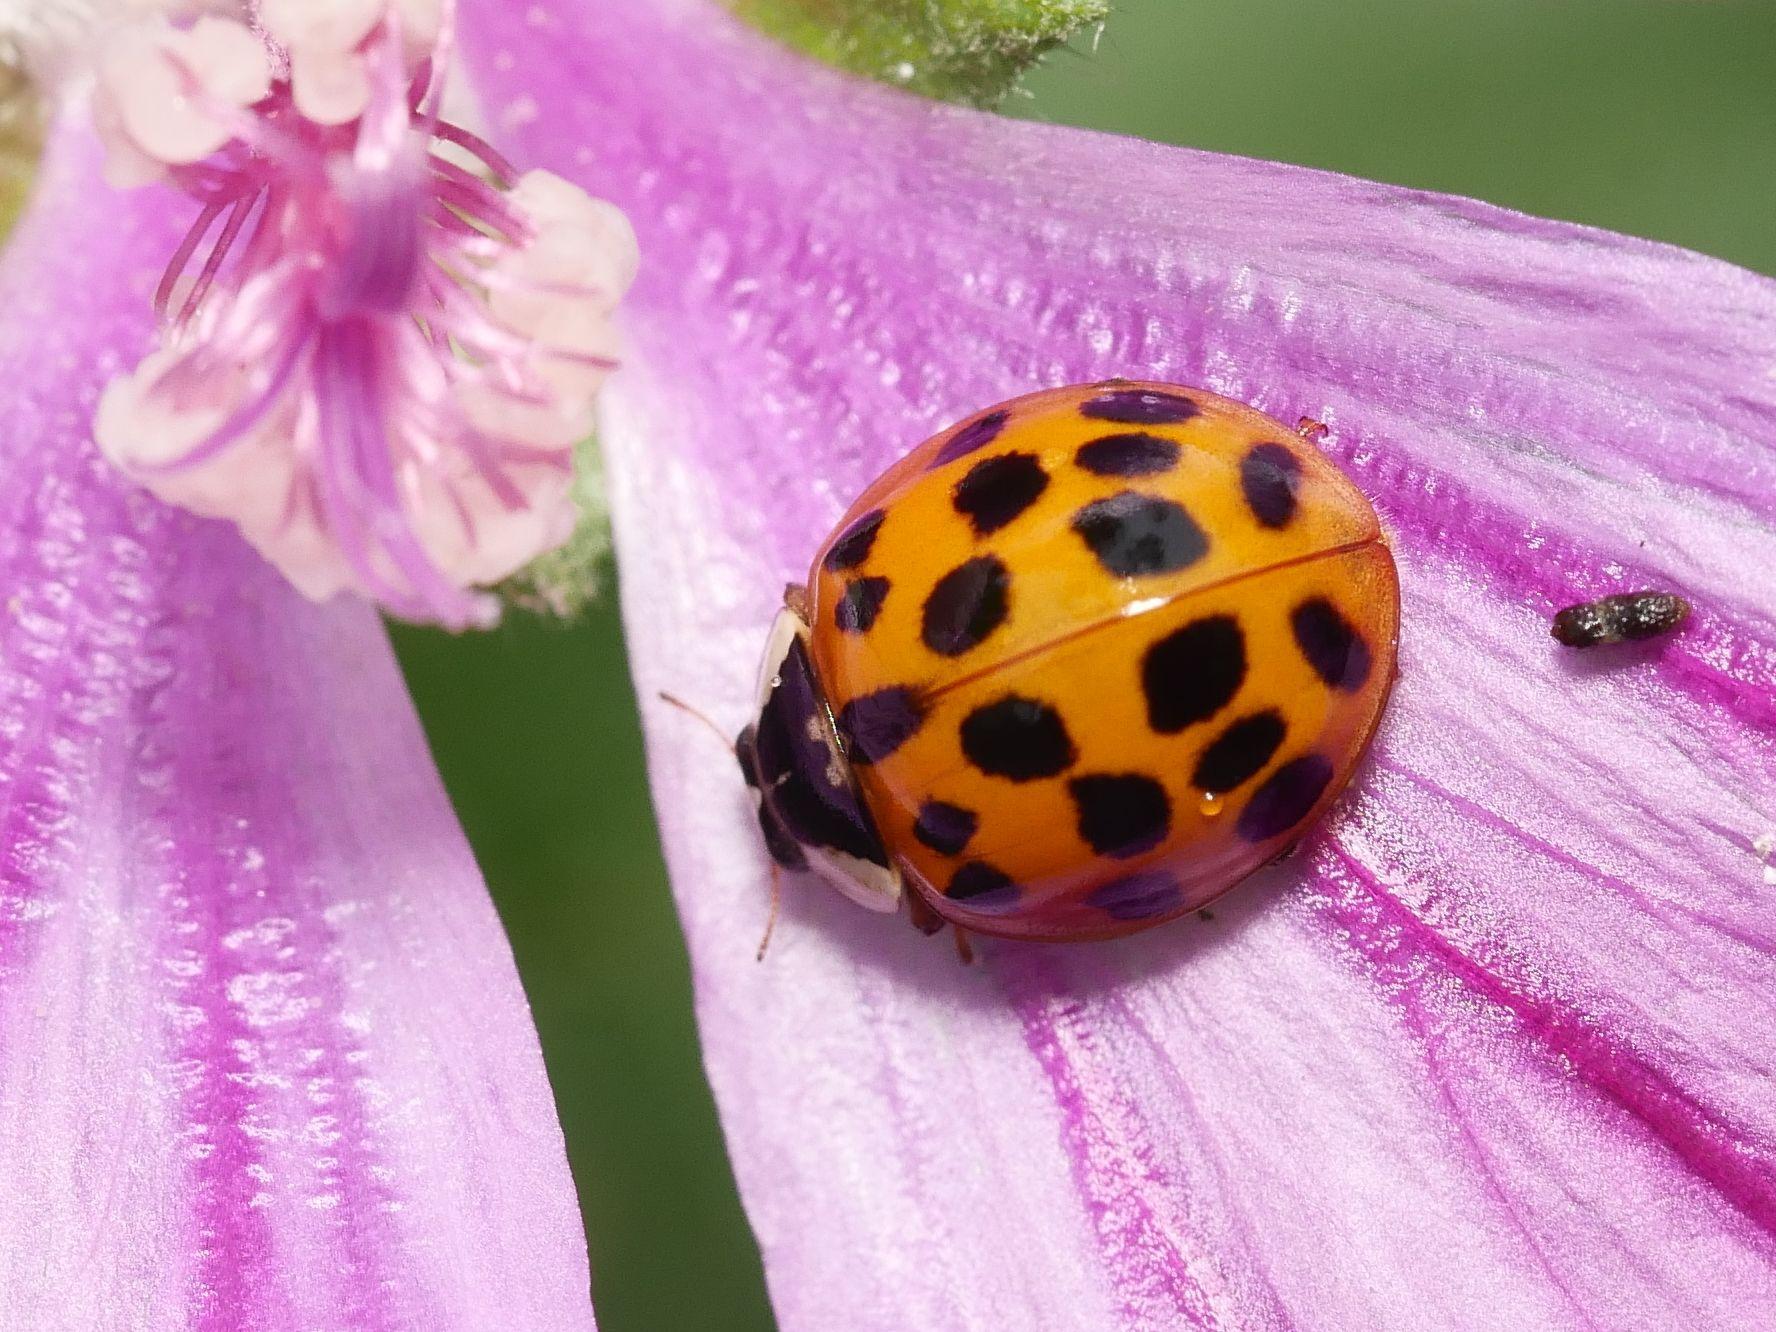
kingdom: Animalia
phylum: Arthropoda
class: Insecta
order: Coleoptera
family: Coccinellidae
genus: Harmonia
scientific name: Harmonia axyridis
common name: Harlequin ladybird
